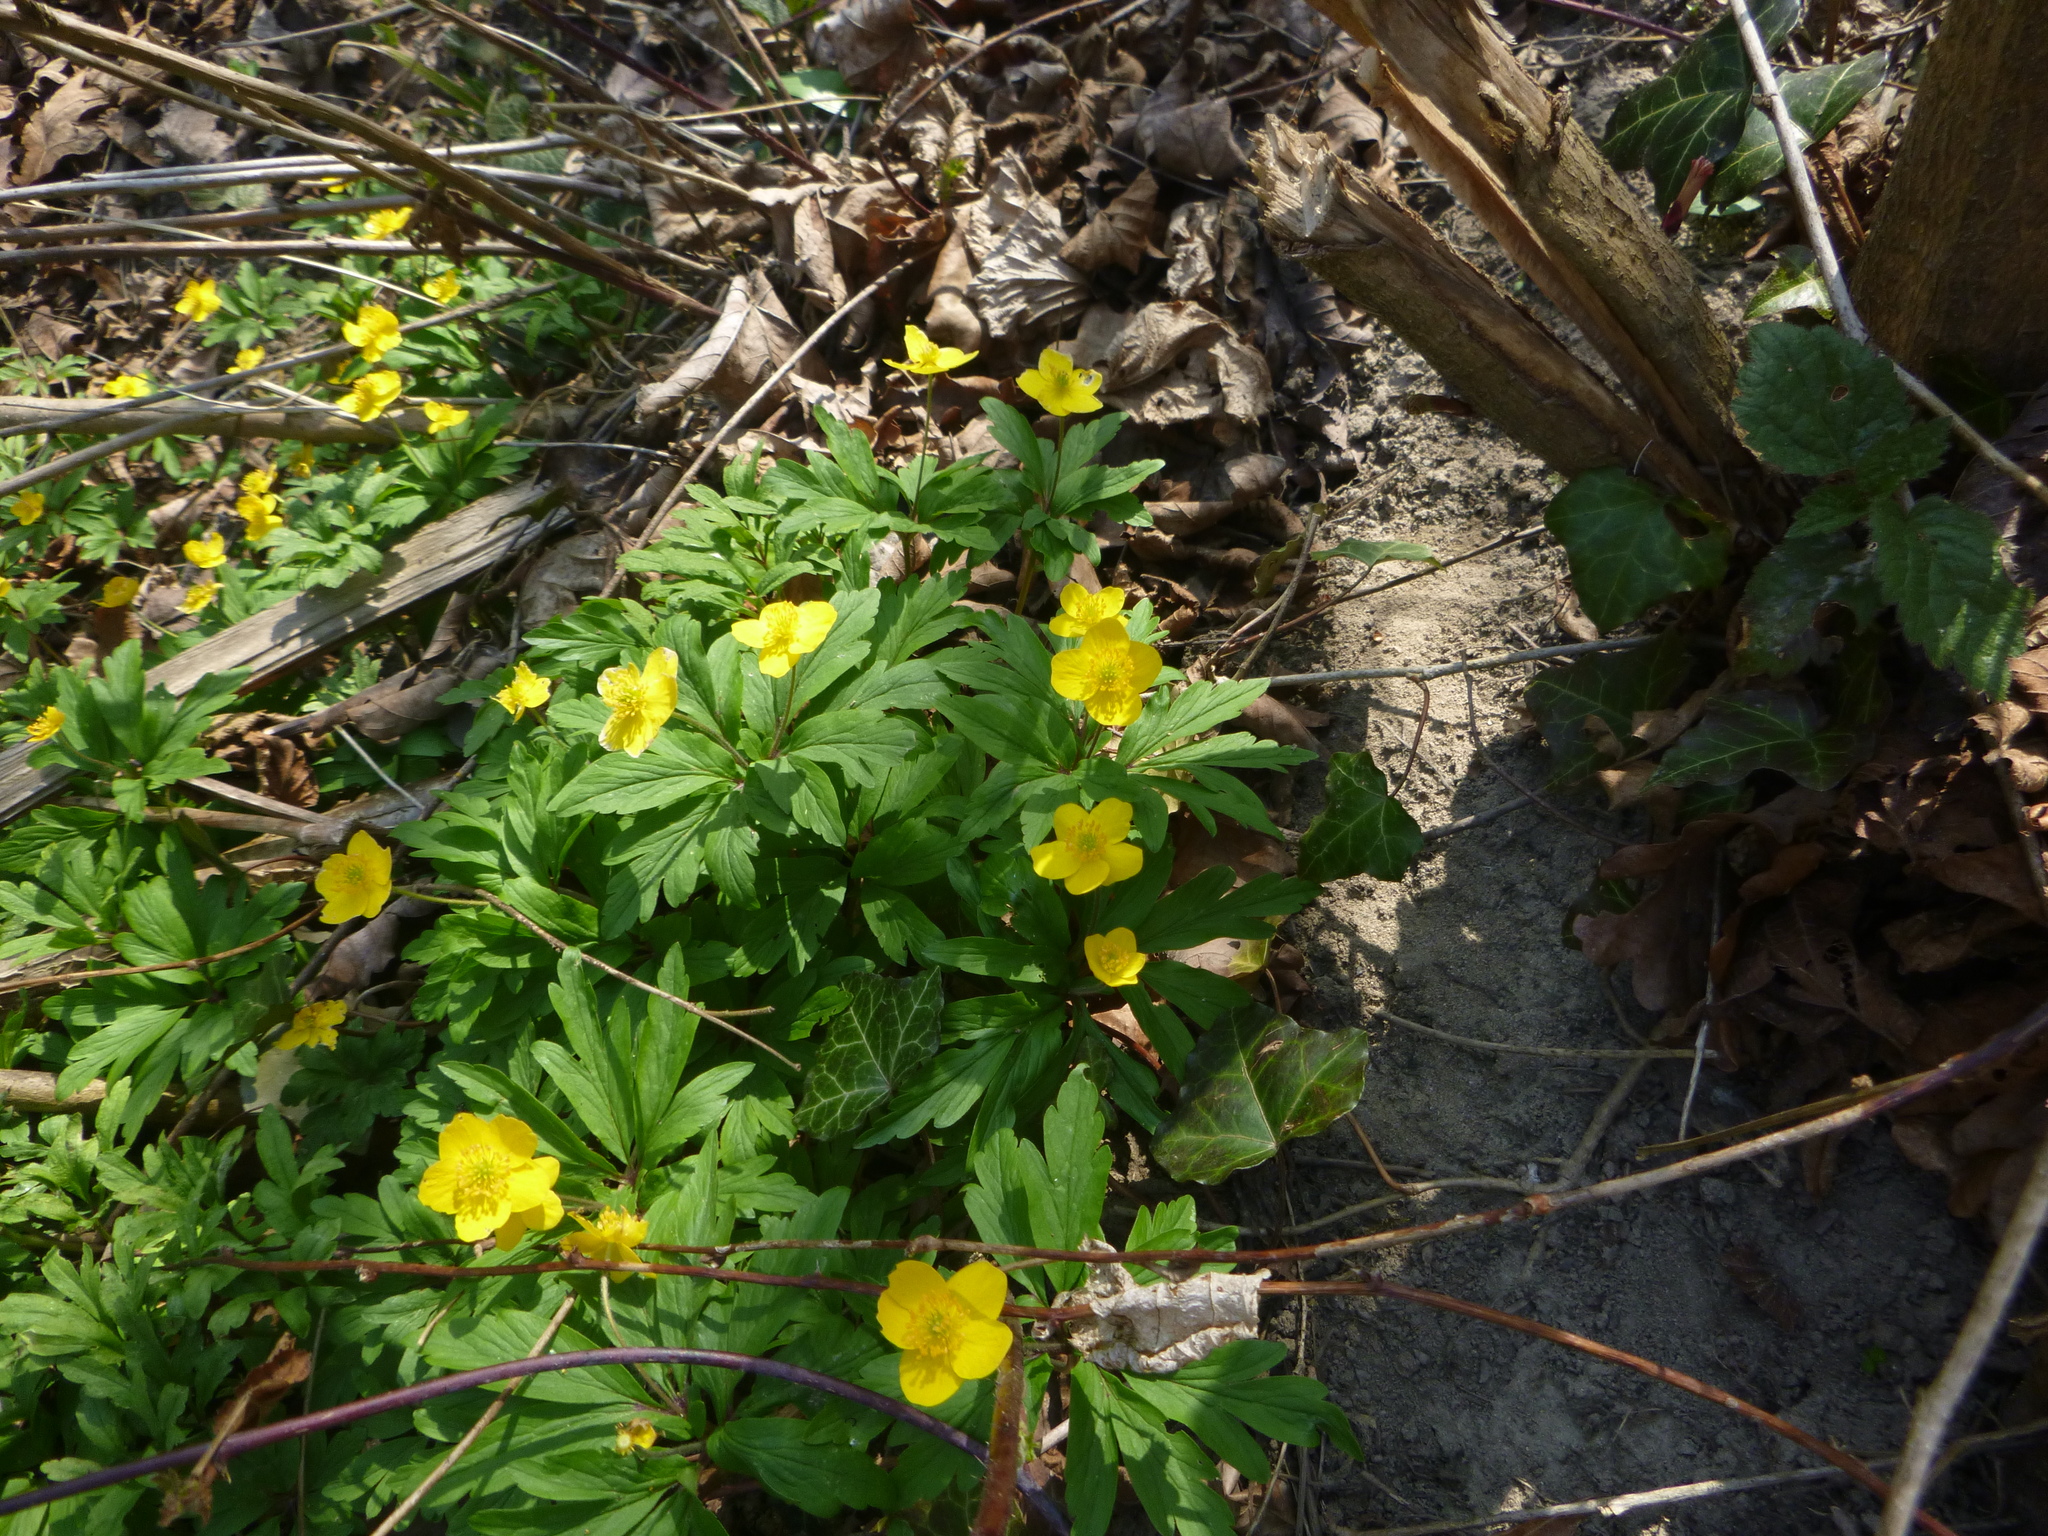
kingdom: Plantae
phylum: Tracheophyta
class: Magnoliopsida
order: Ranunculales
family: Ranunculaceae
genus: Anemone
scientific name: Anemone ranunculoides
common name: Yellow anemone
